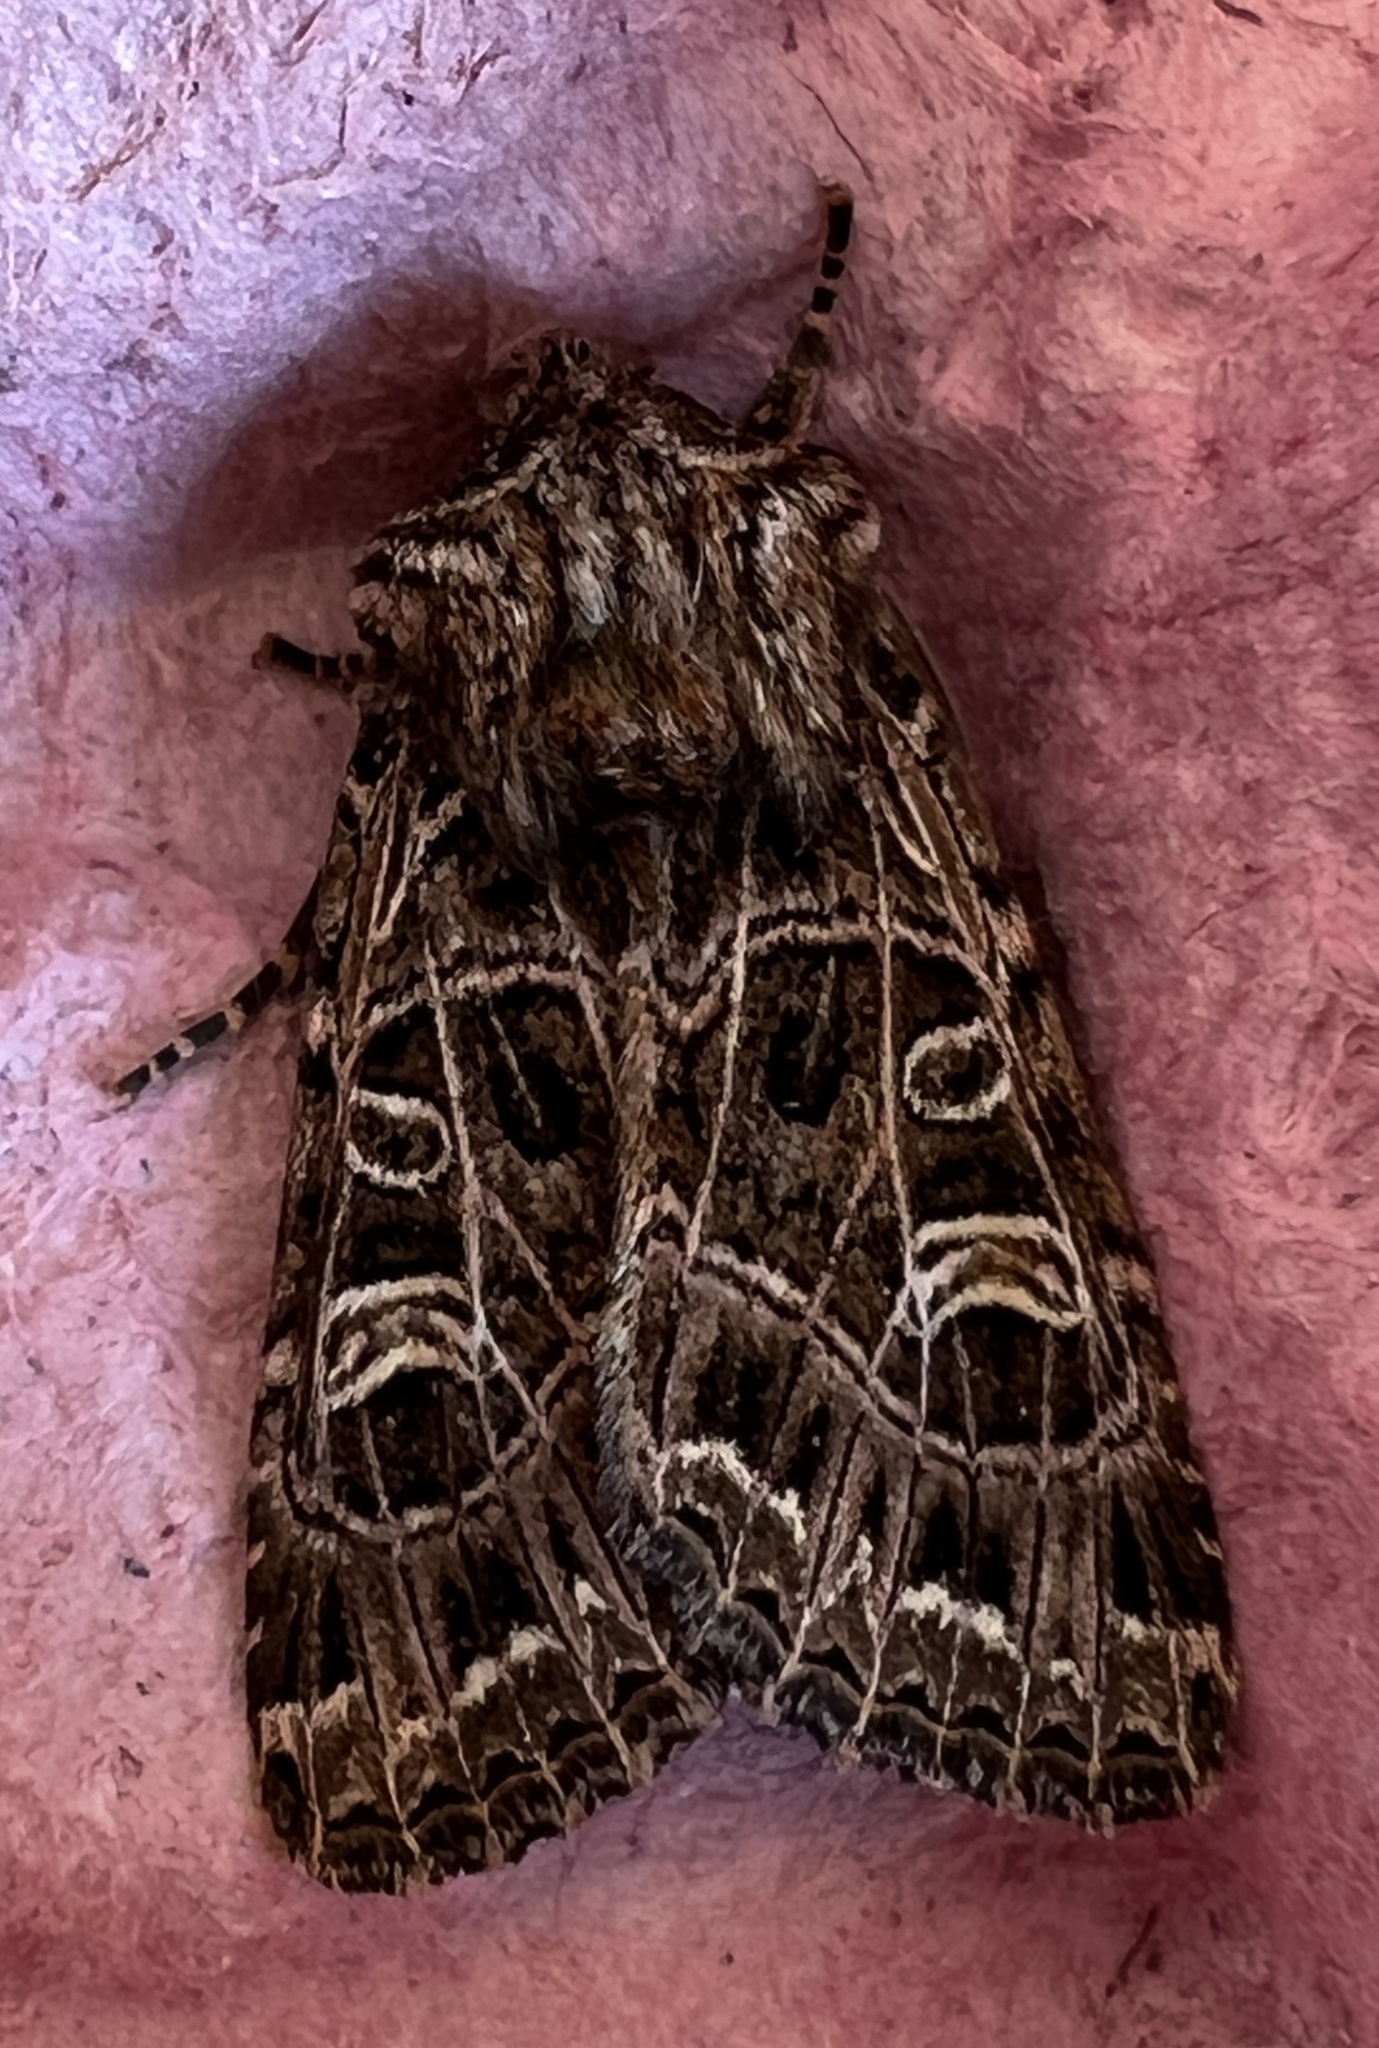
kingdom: Animalia
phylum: Arthropoda
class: Insecta
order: Lepidoptera
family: Noctuidae
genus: Sideridis
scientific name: Sideridis reticulata
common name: Bordered gothic
